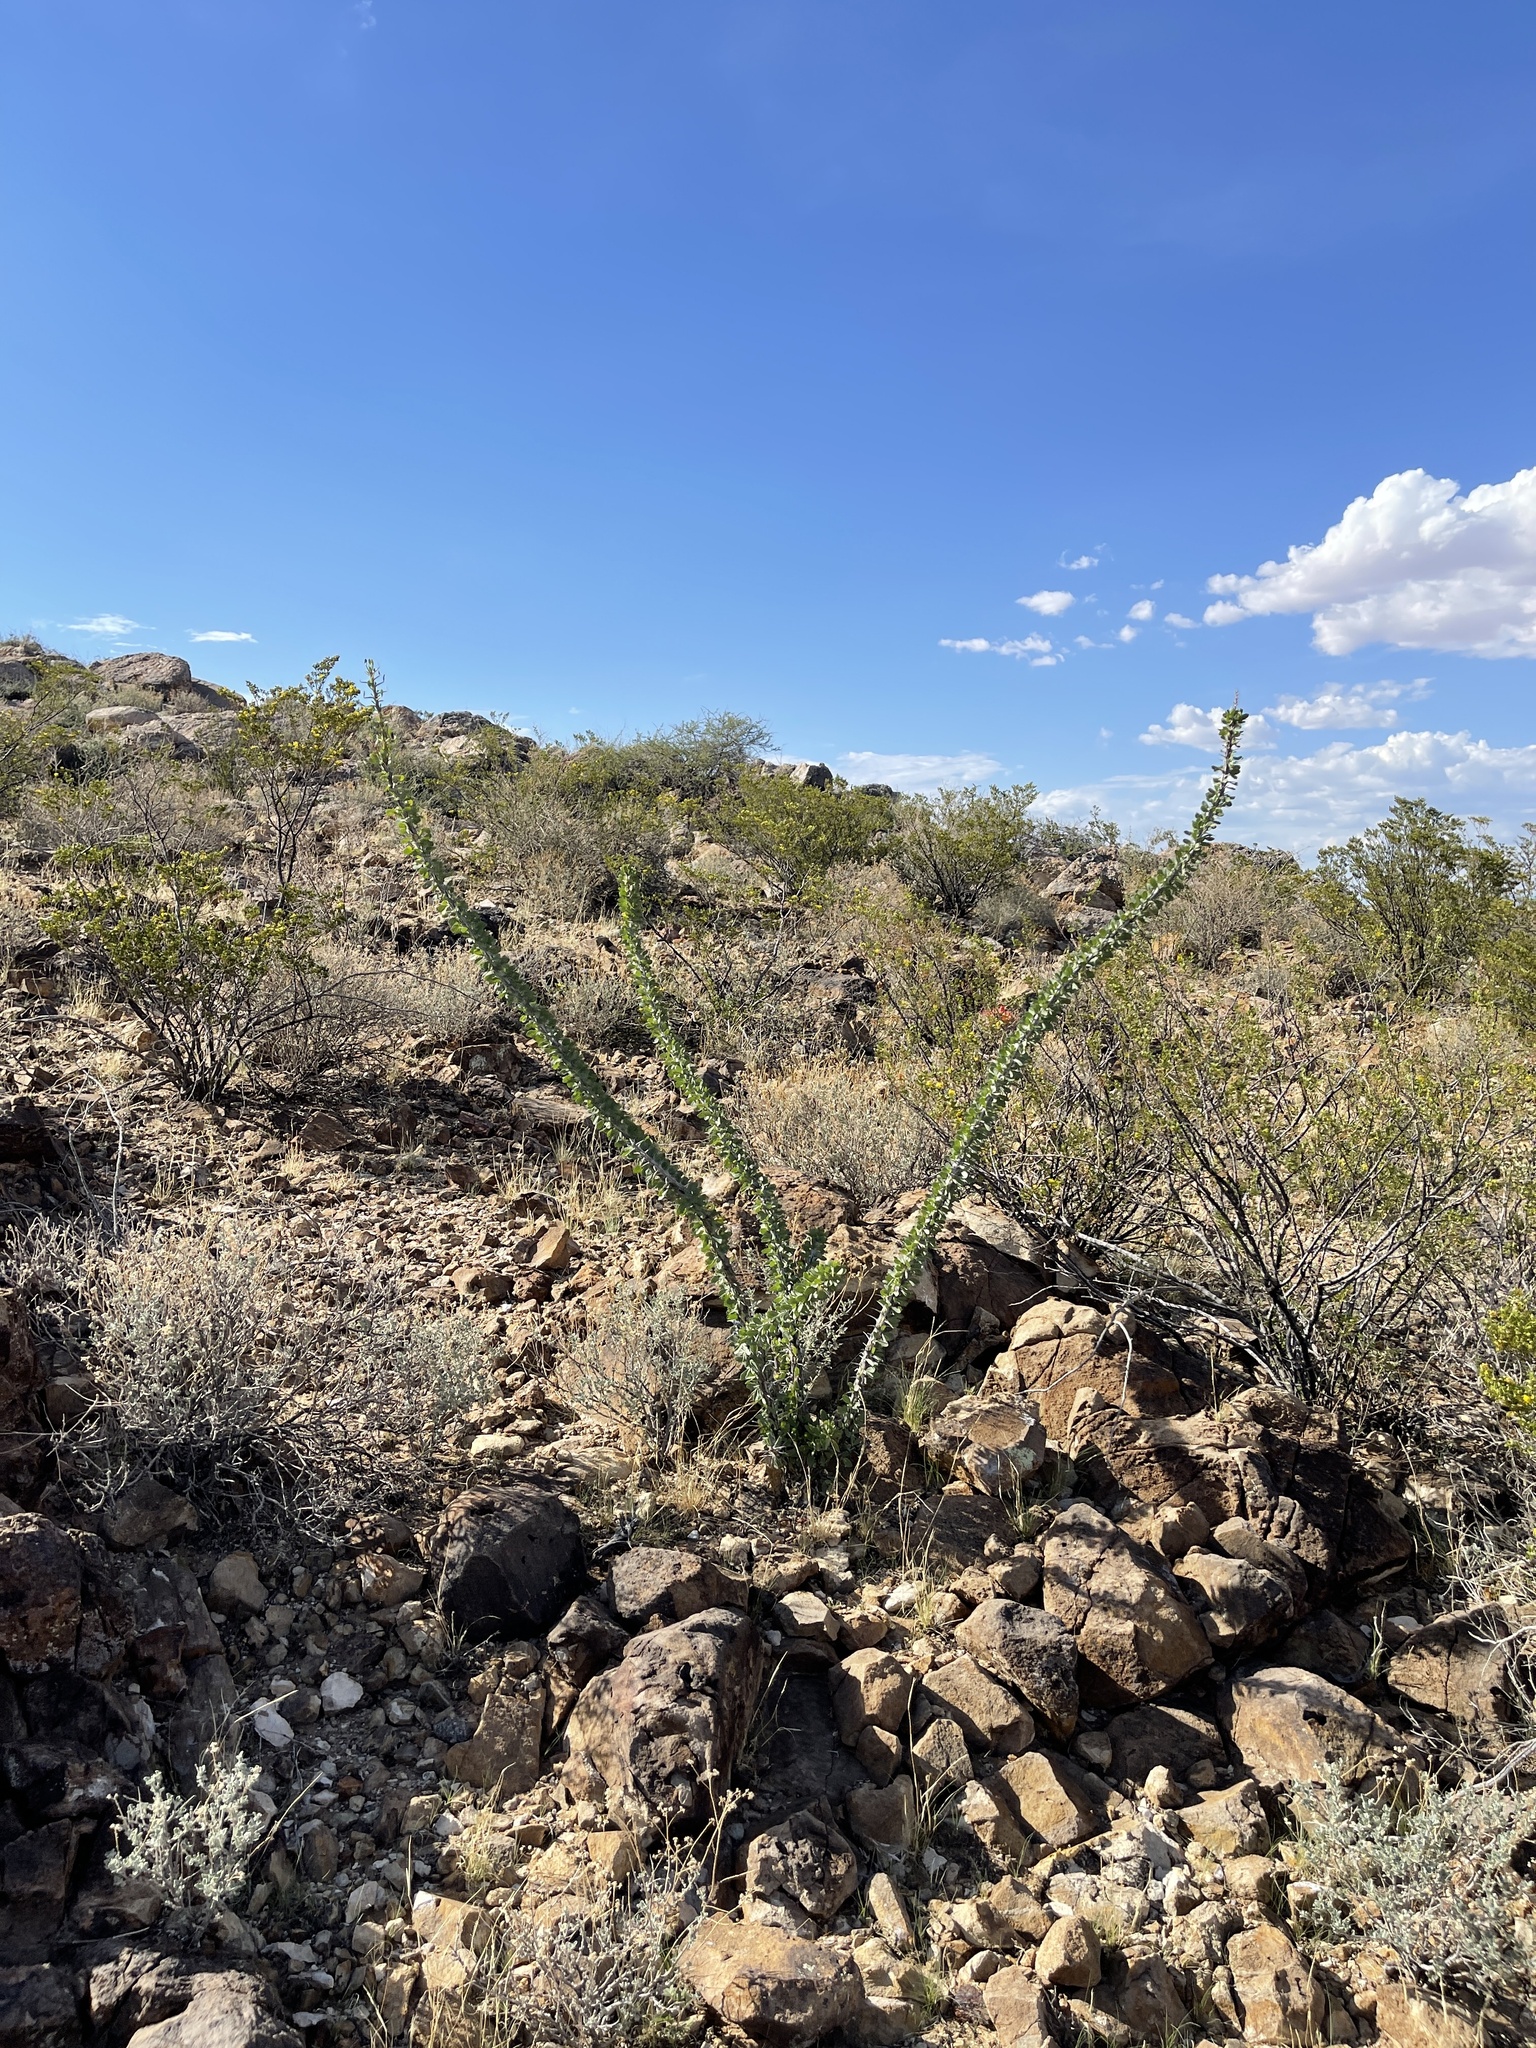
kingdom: Plantae
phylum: Tracheophyta
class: Magnoliopsida
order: Ericales
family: Fouquieriaceae
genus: Fouquieria
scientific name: Fouquieria splendens
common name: Vine-cactus
